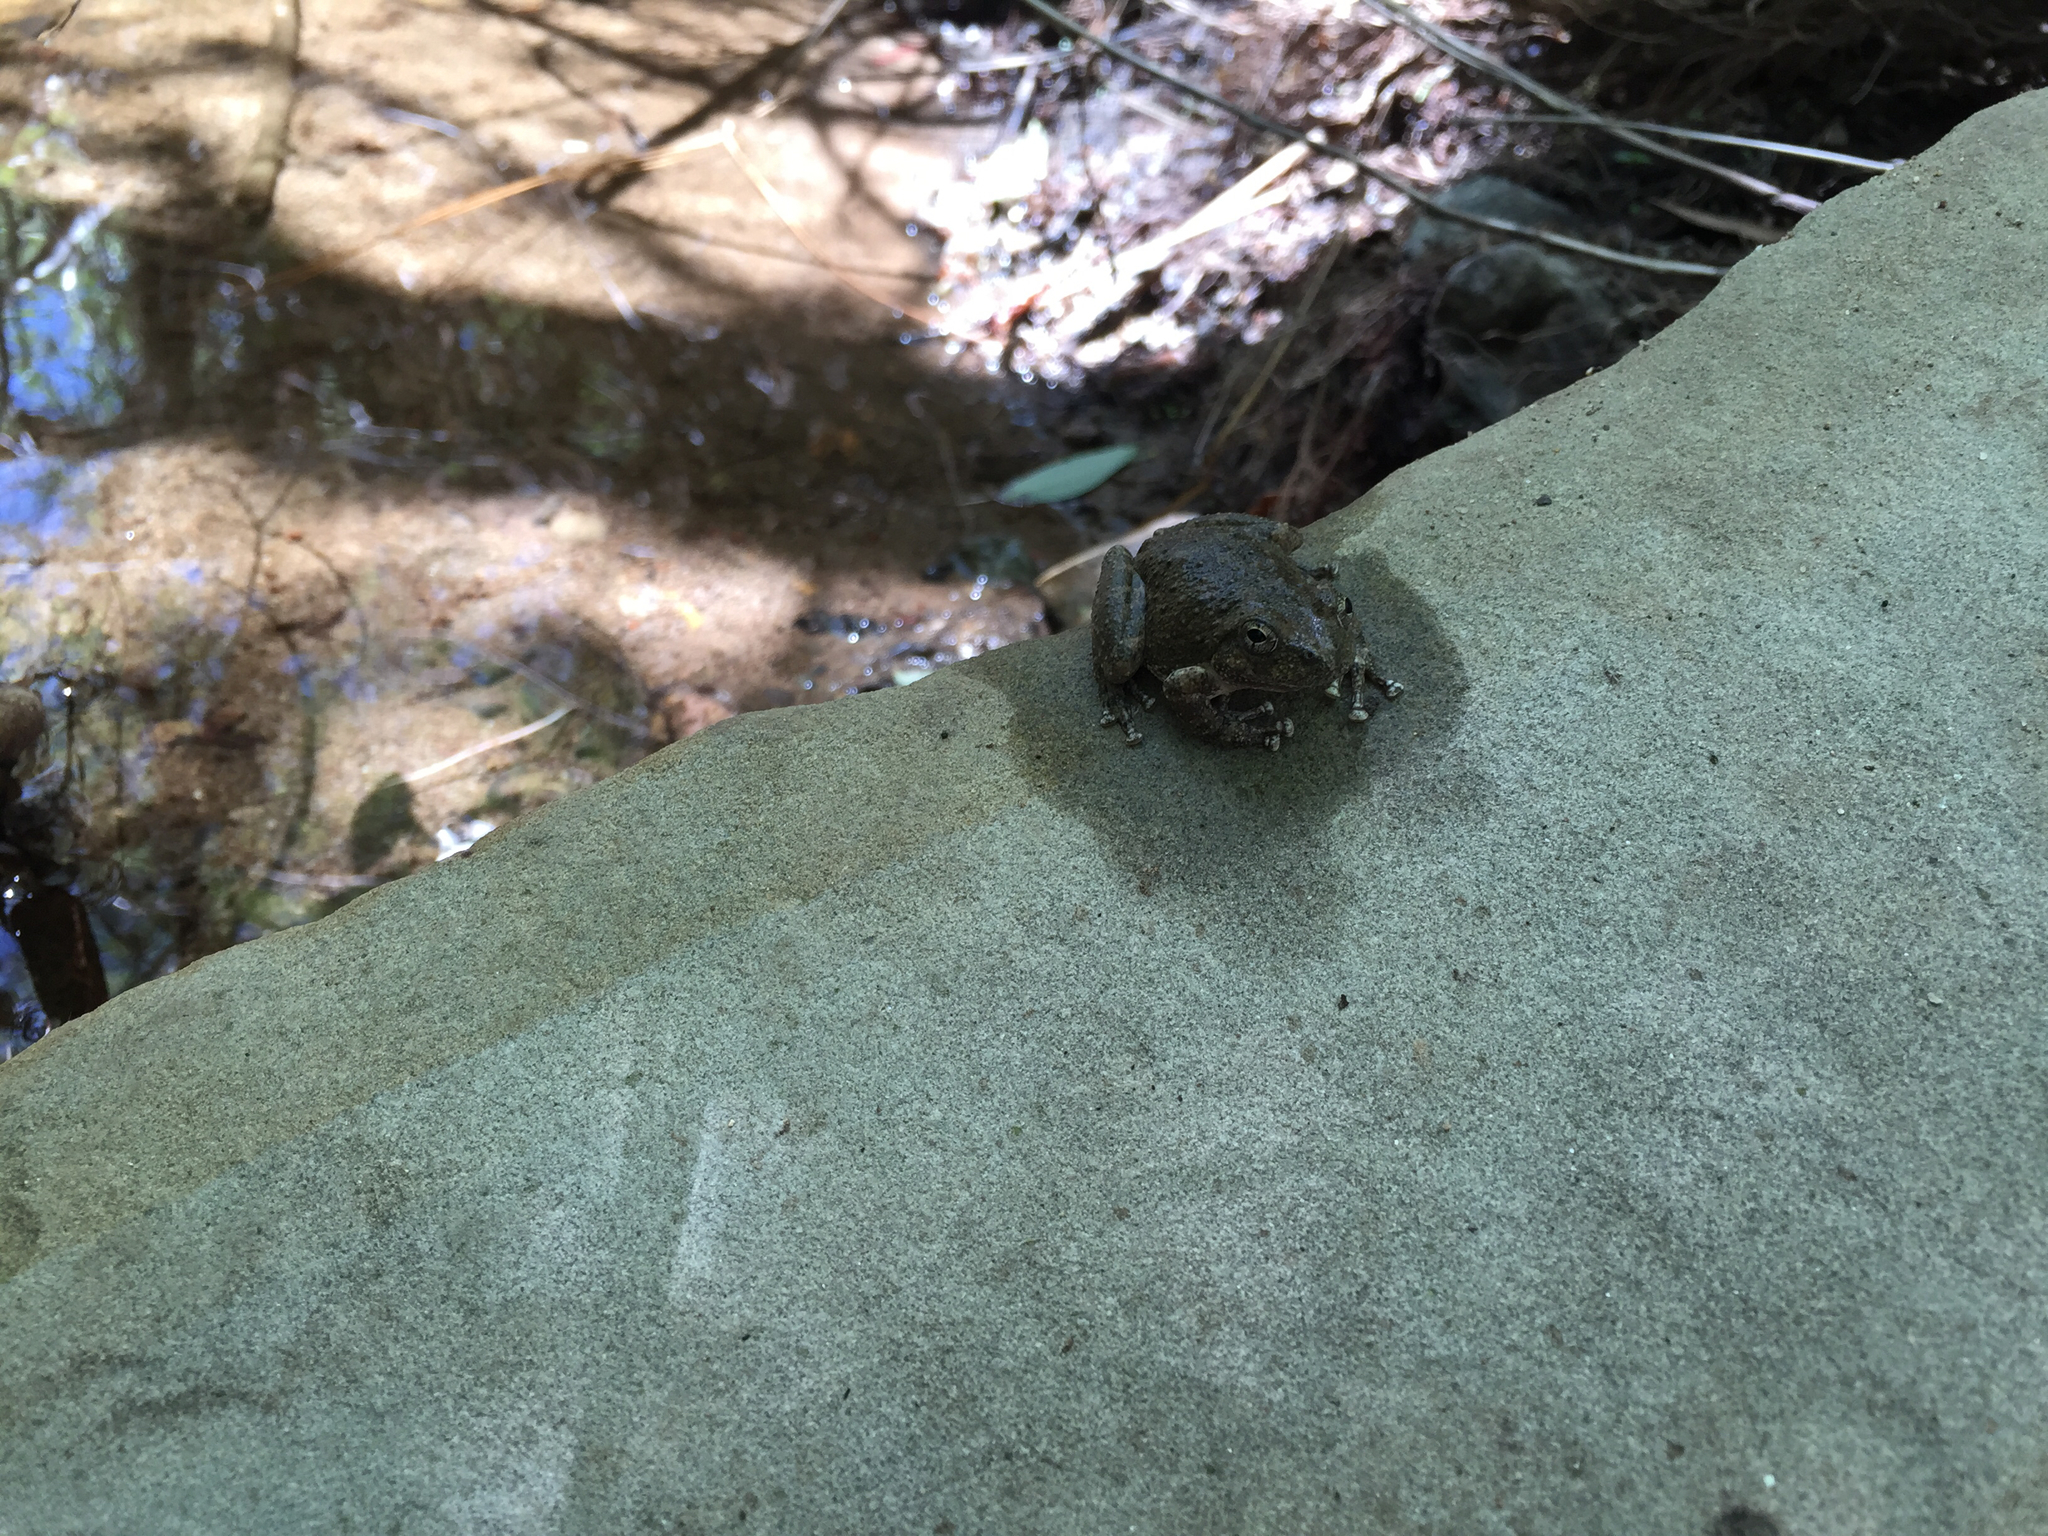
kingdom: Animalia
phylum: Chordata
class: Amphibia
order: Anura
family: Hylidae
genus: Pseudacris
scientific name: Pseudacris cadaverina
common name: California chorus frog
